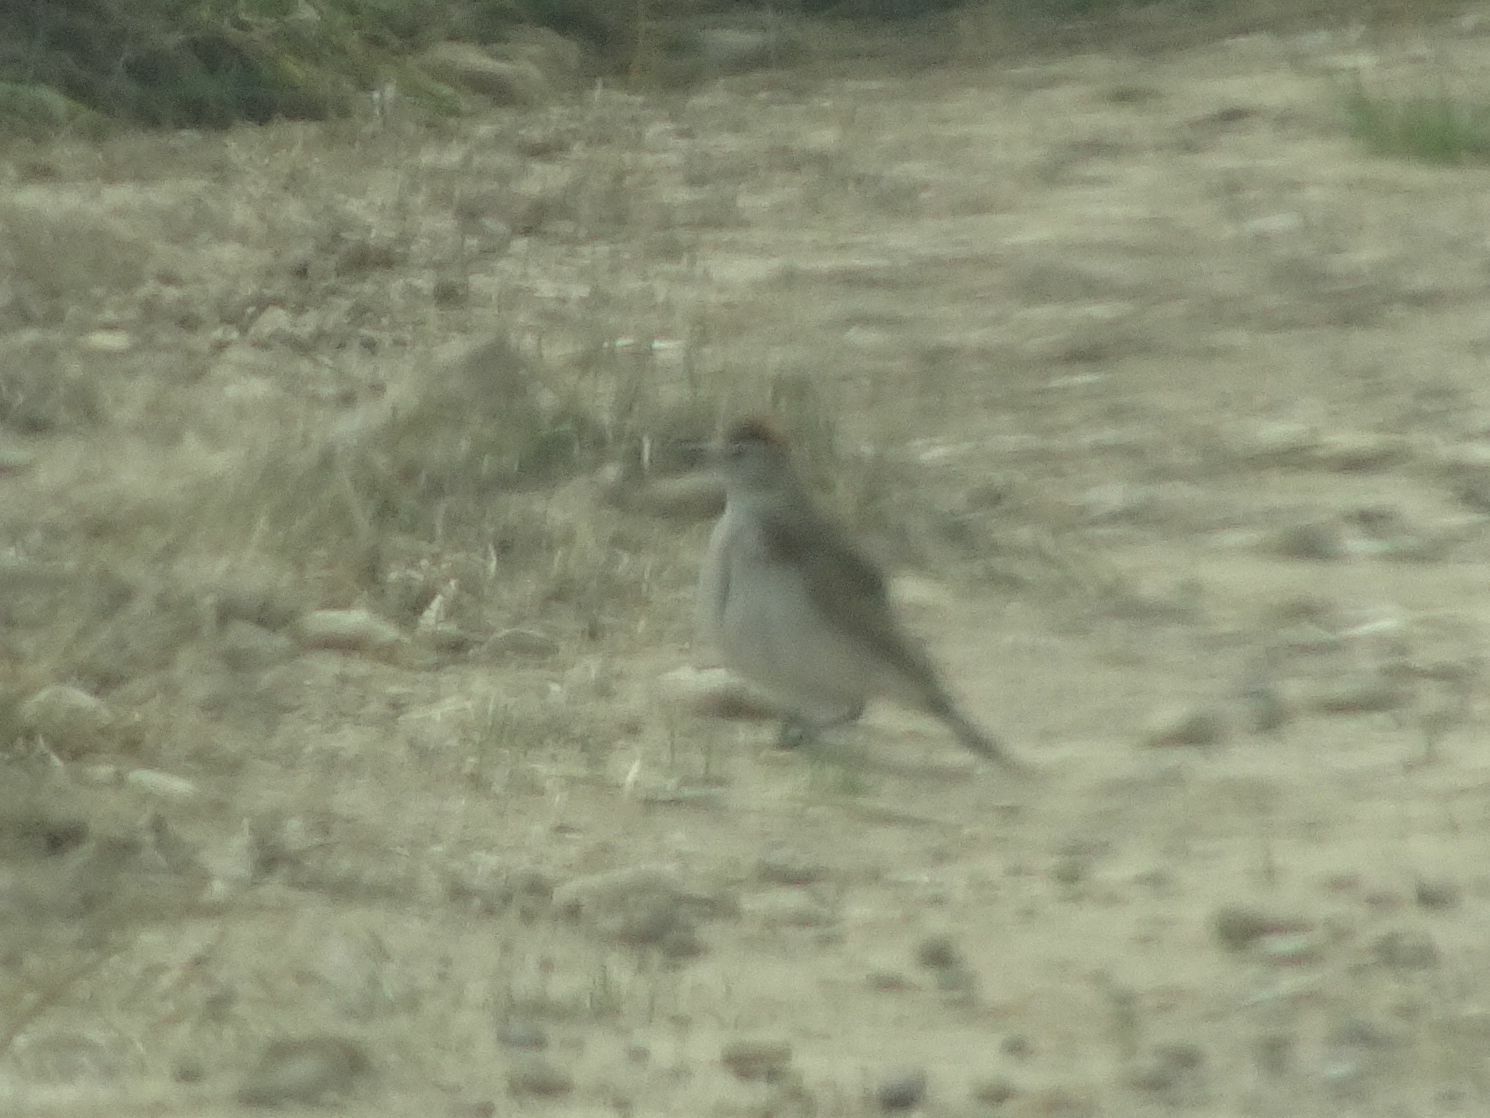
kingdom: Animalia
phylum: Chordata
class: Aves
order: Passeriformes
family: Alaudidae
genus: Calandrella
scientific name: Calandrella cinerea
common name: Red-capped lark
